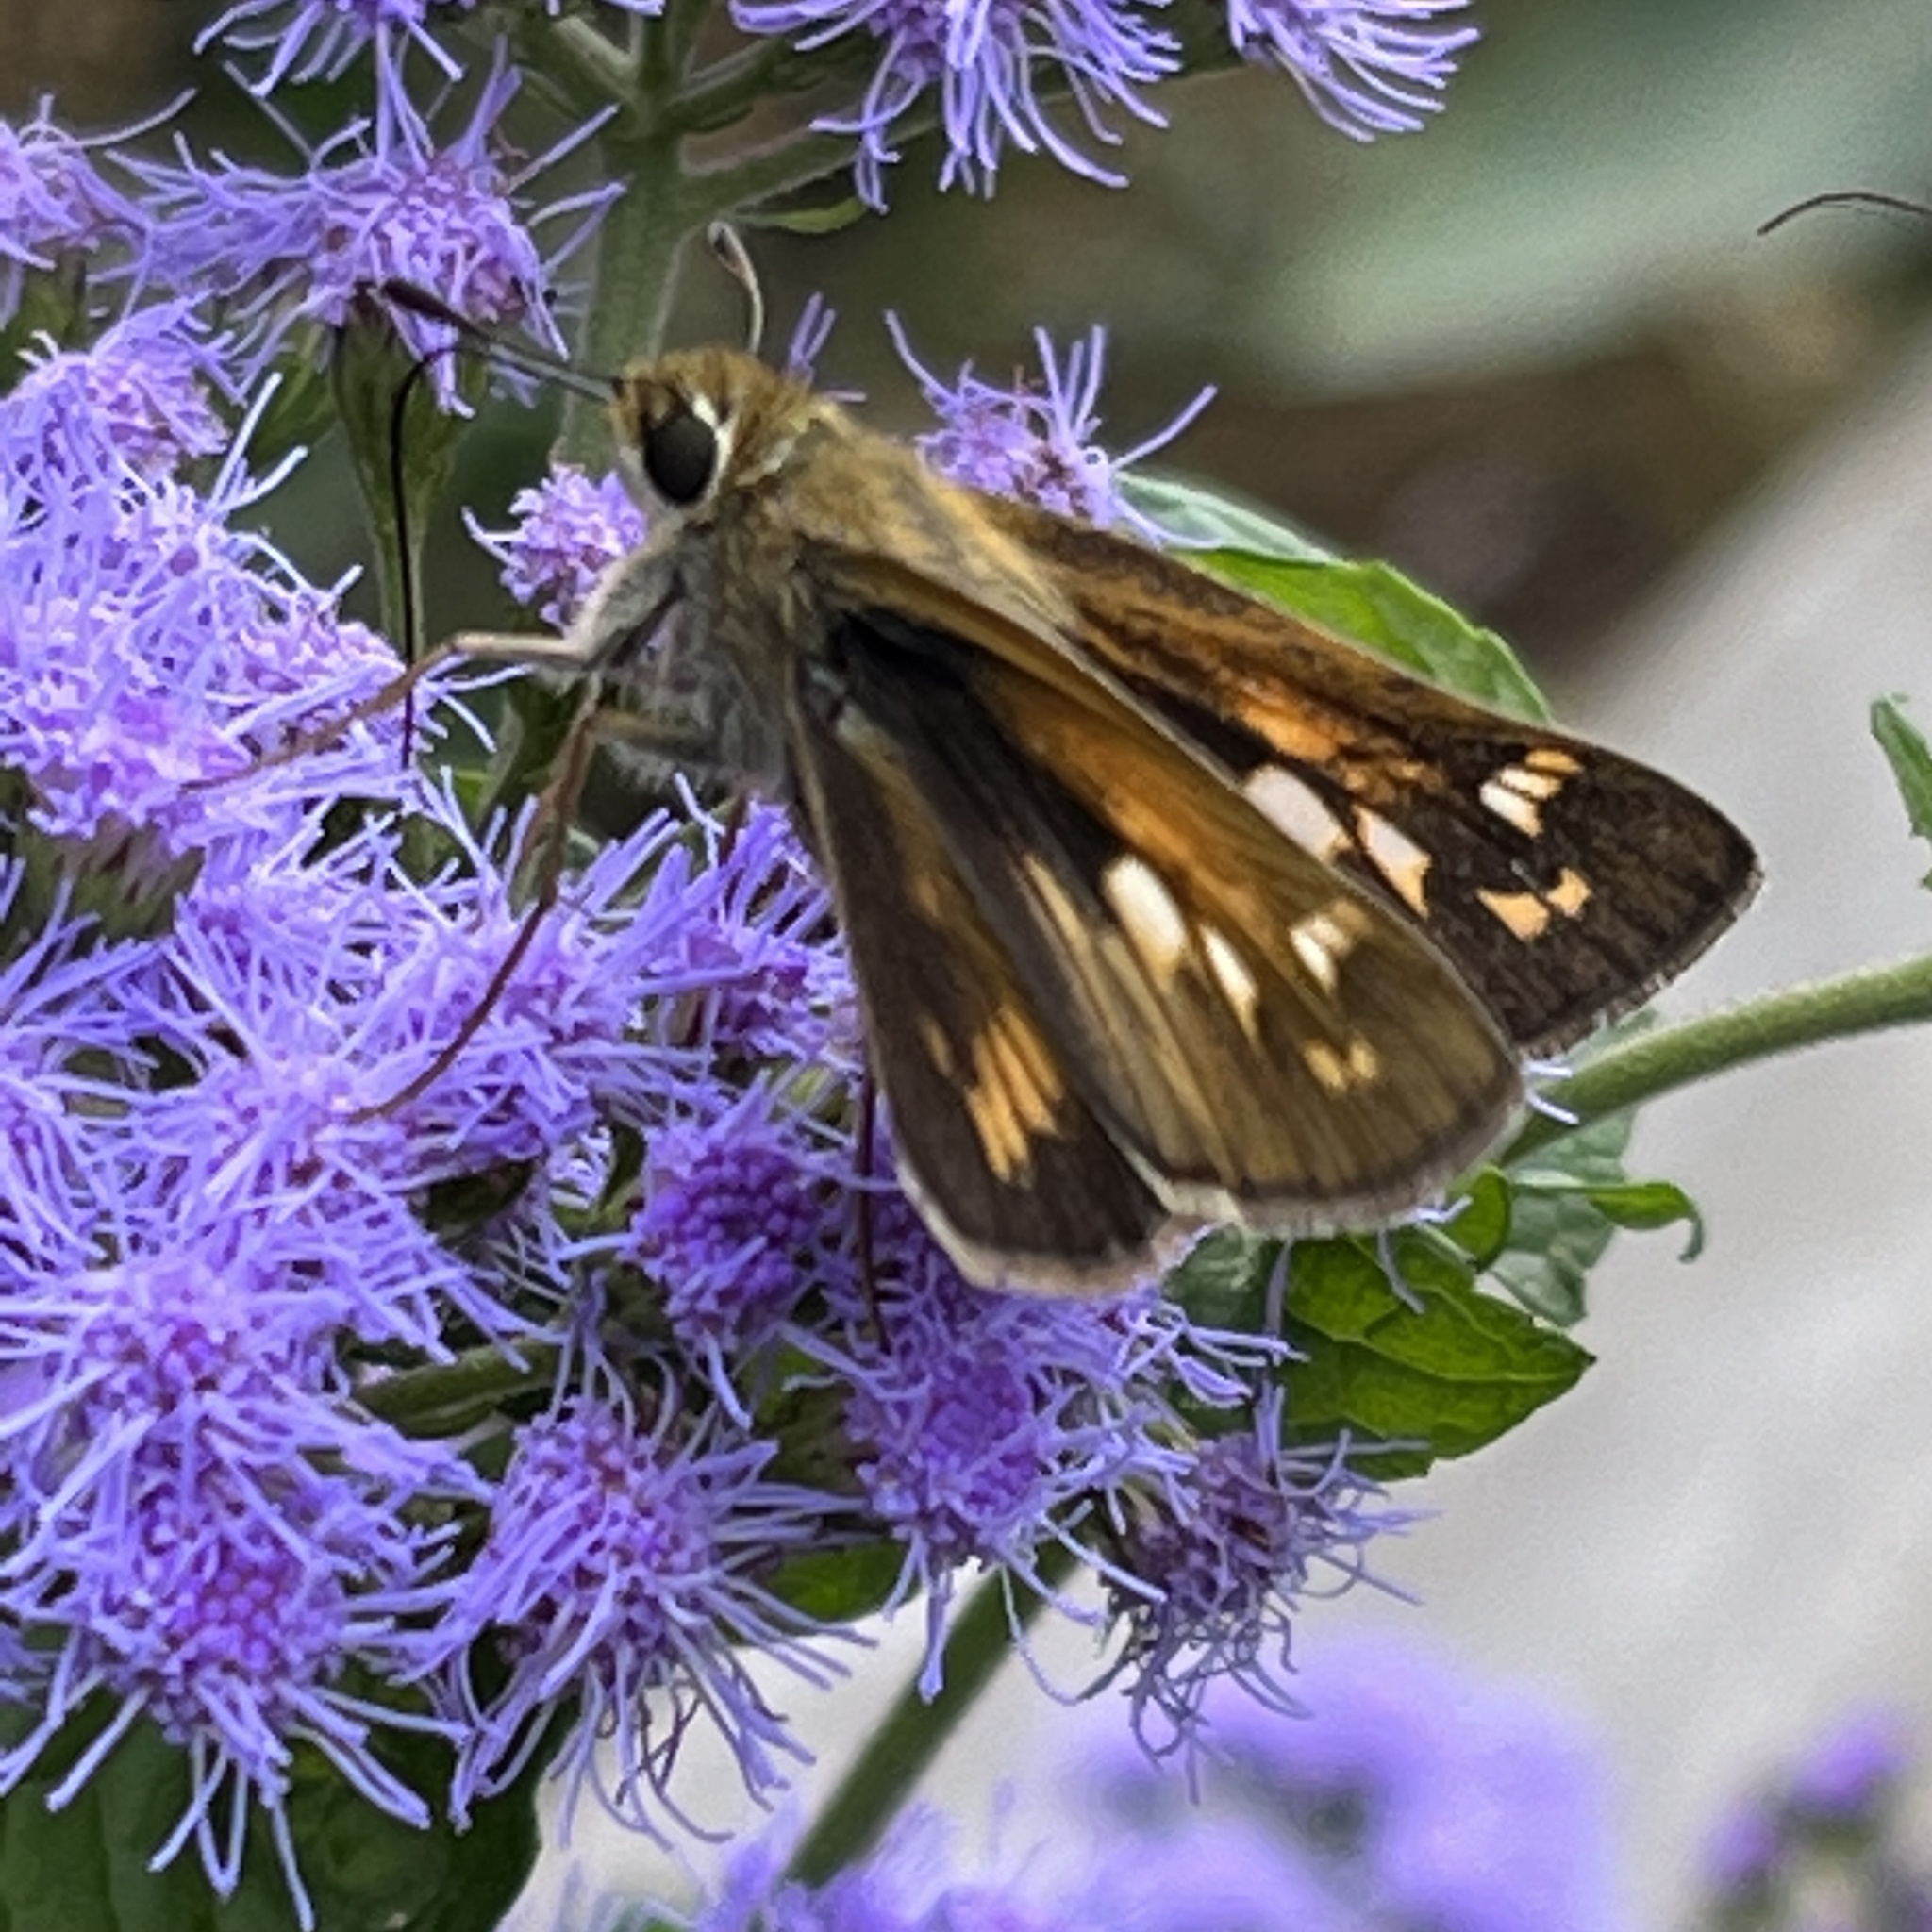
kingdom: Animalia
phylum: Arthropoda
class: Insecta
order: Lepidoptera
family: Hesperiidae
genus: Atalopedes
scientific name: Atalopedes
